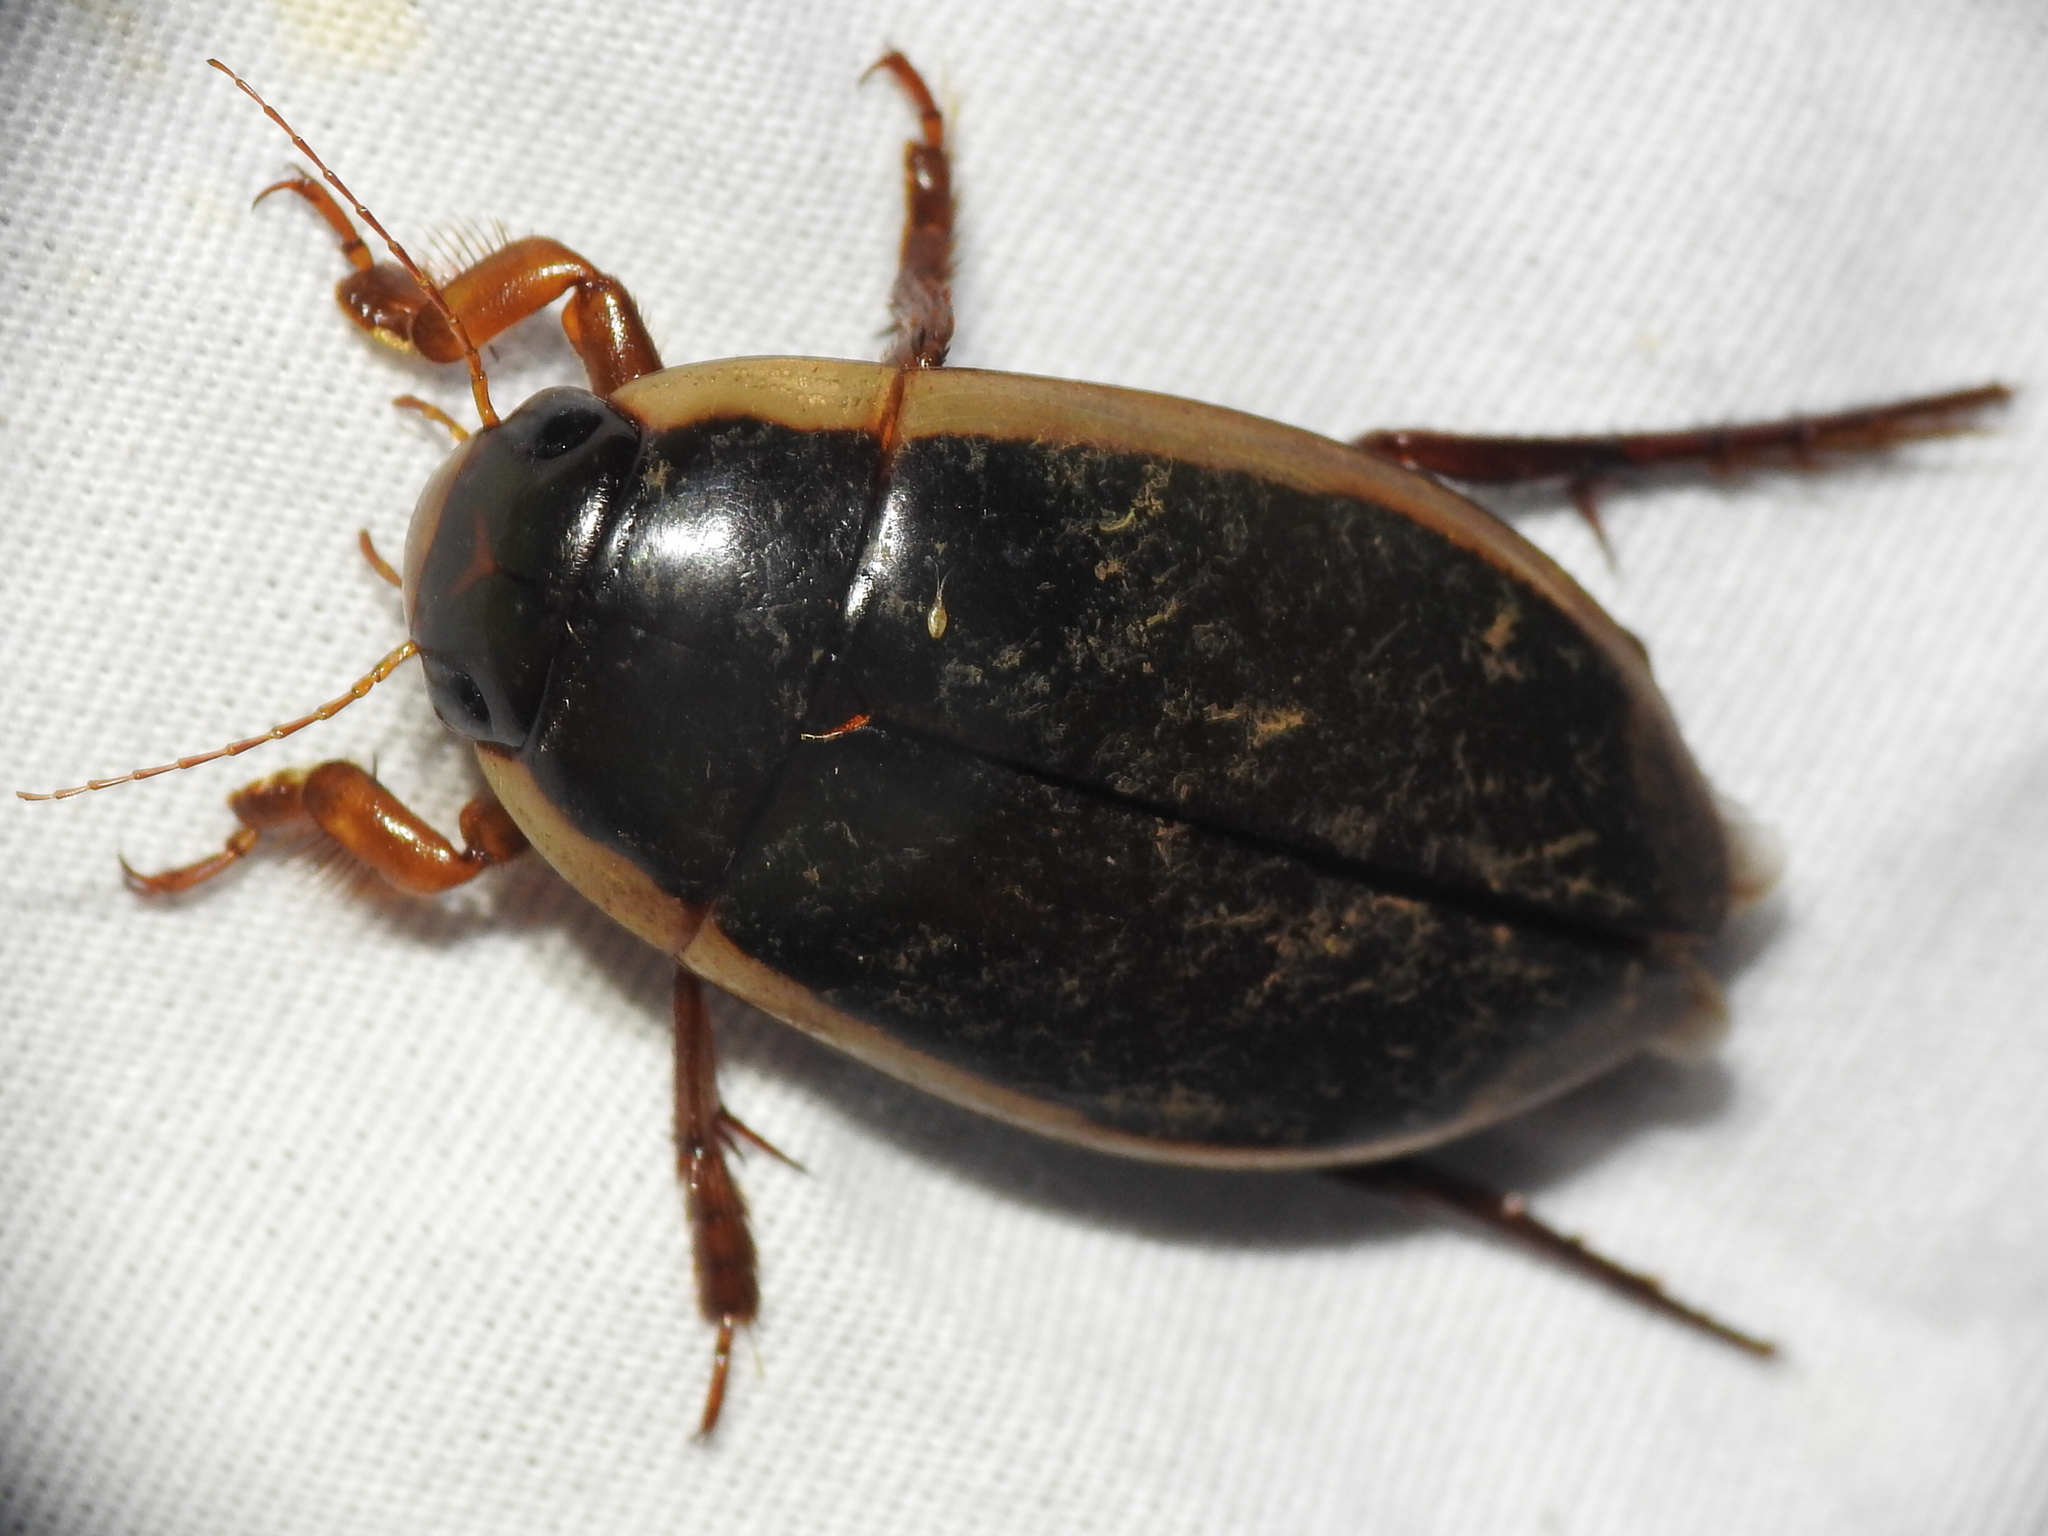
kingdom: Animalia
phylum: Arthropoda
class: Insecta
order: Coleoptera
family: Dytiscidae
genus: Dytiscus
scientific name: Dytiscus carolinus
